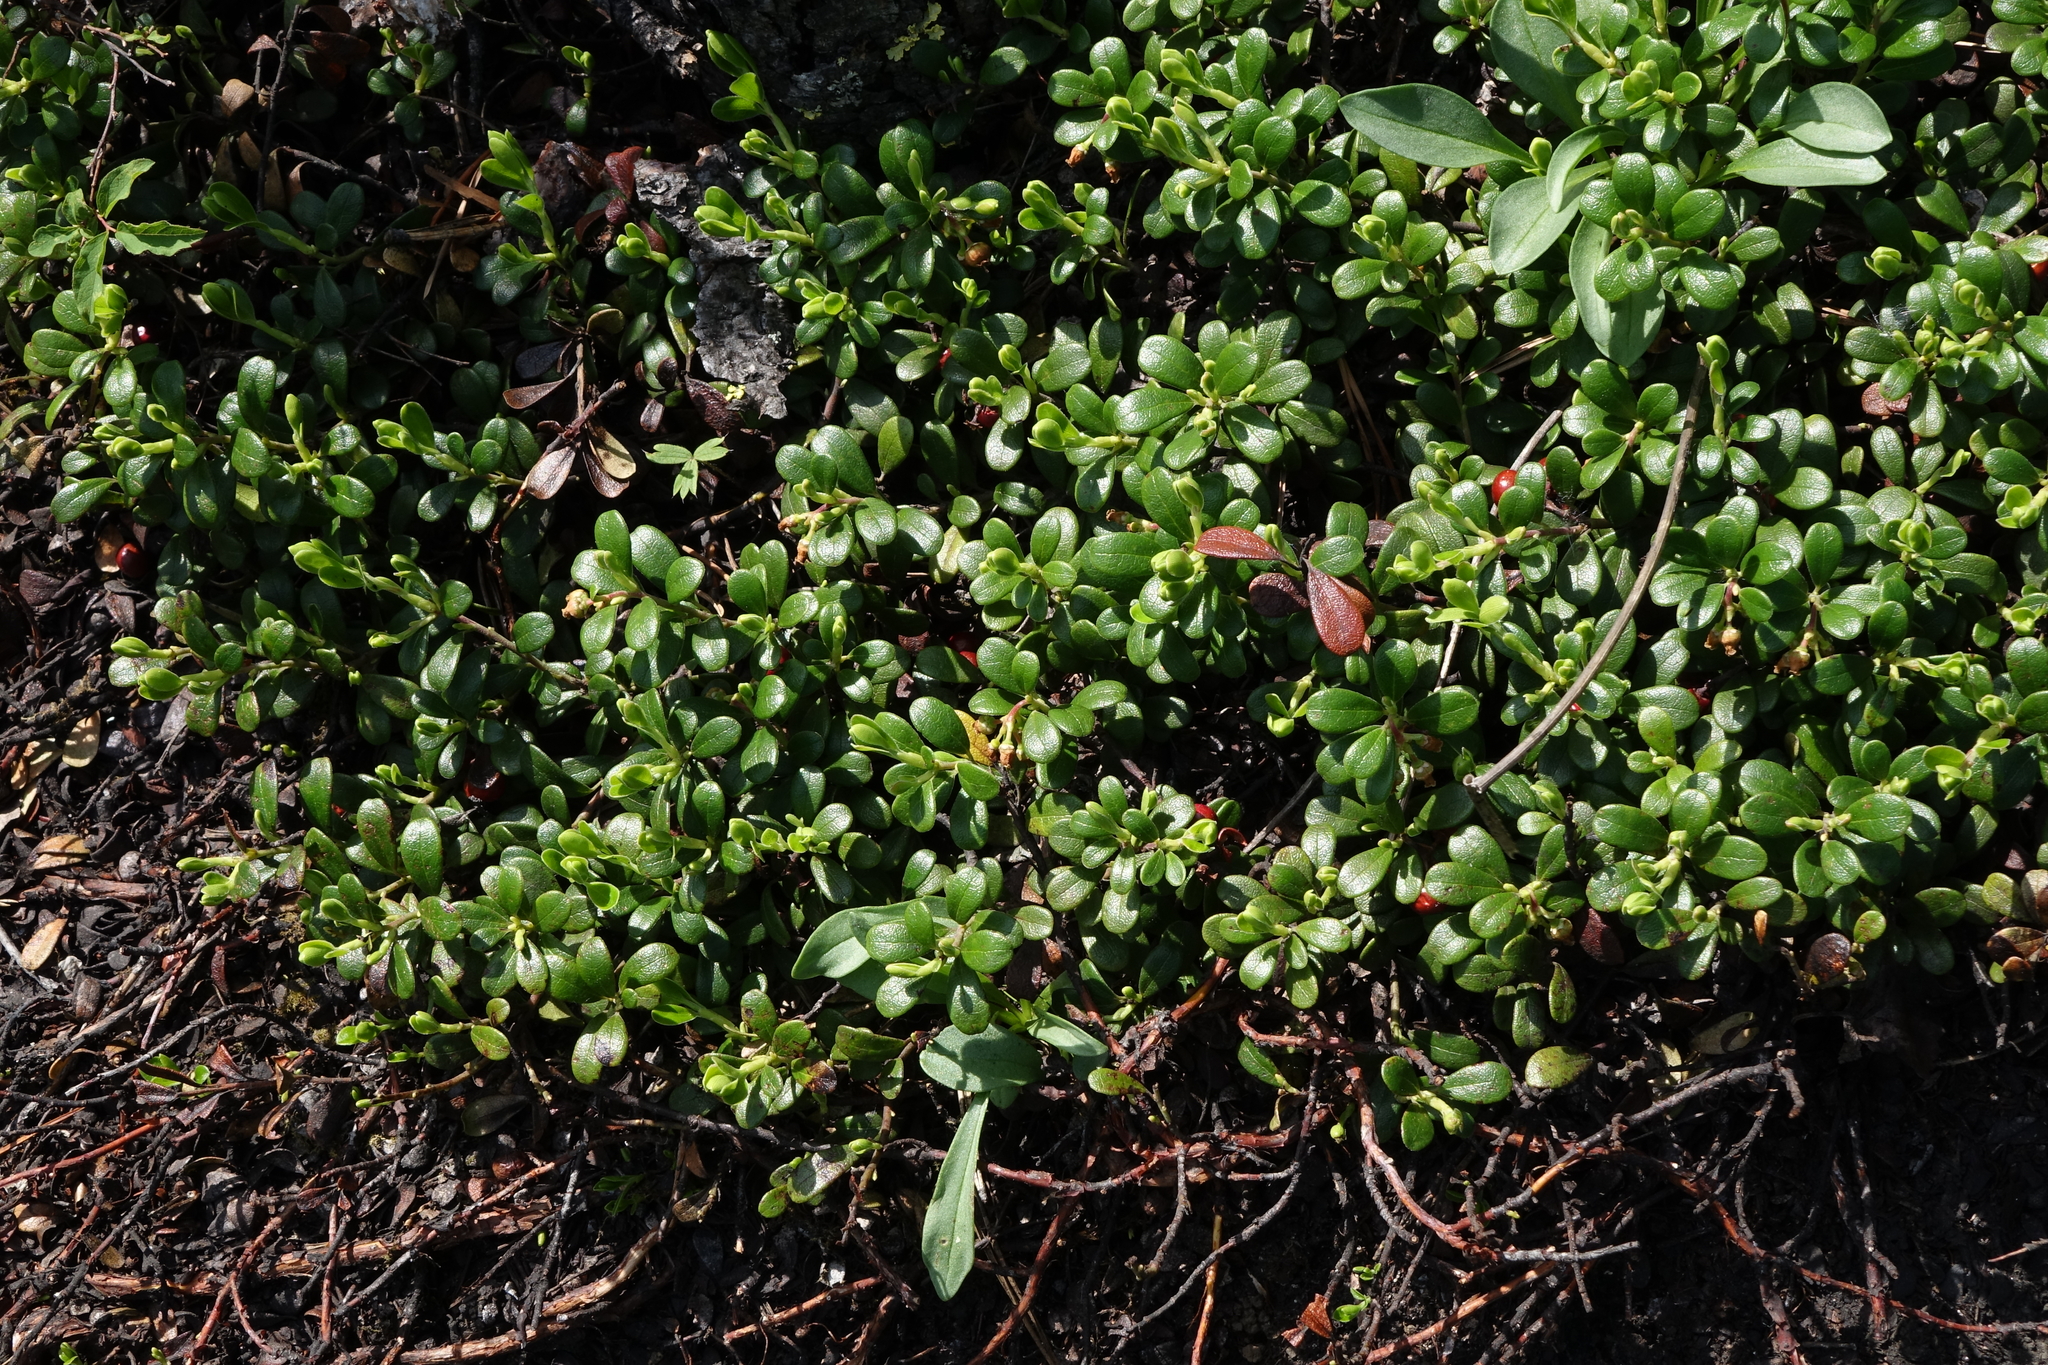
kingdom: Plantae
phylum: Tracheophyta
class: Magnoliopsida
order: Ericales
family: Ericaceae
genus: Arctostaphylos
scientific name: Arctostaphylos uva-ursi
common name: Bearberry
